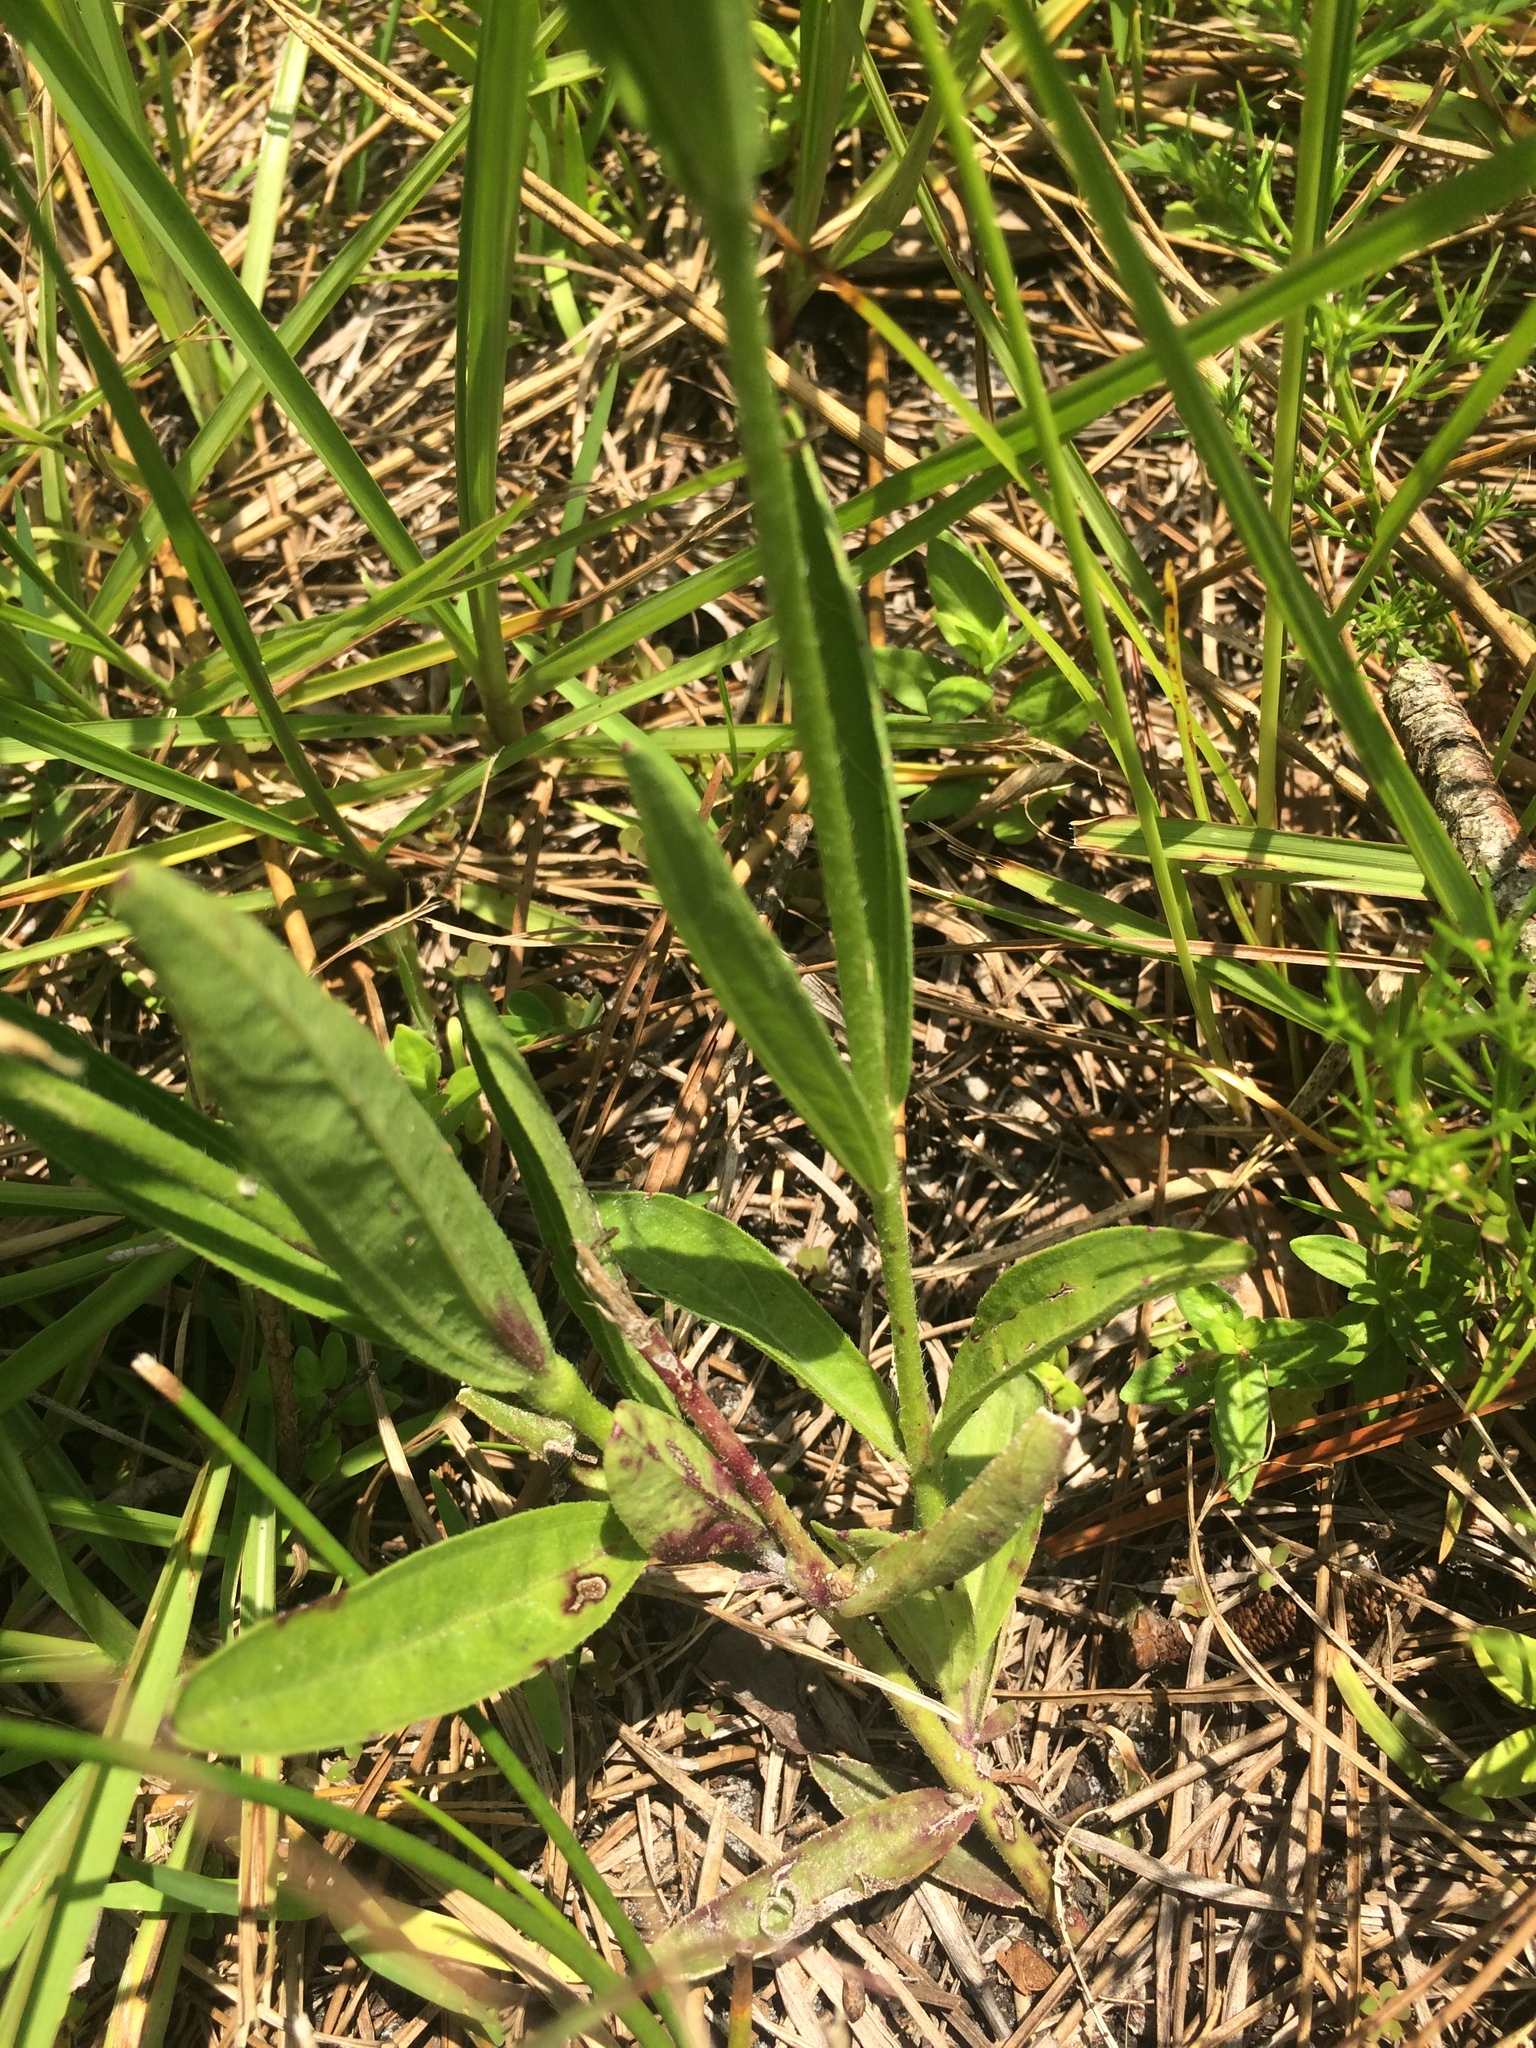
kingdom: Plantae
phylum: Tracheophyta
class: Magnoliopsida
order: Lamiales
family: Orobanchaceae
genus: Buchnera
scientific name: Buchnera floridana
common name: Florida bluehearts
